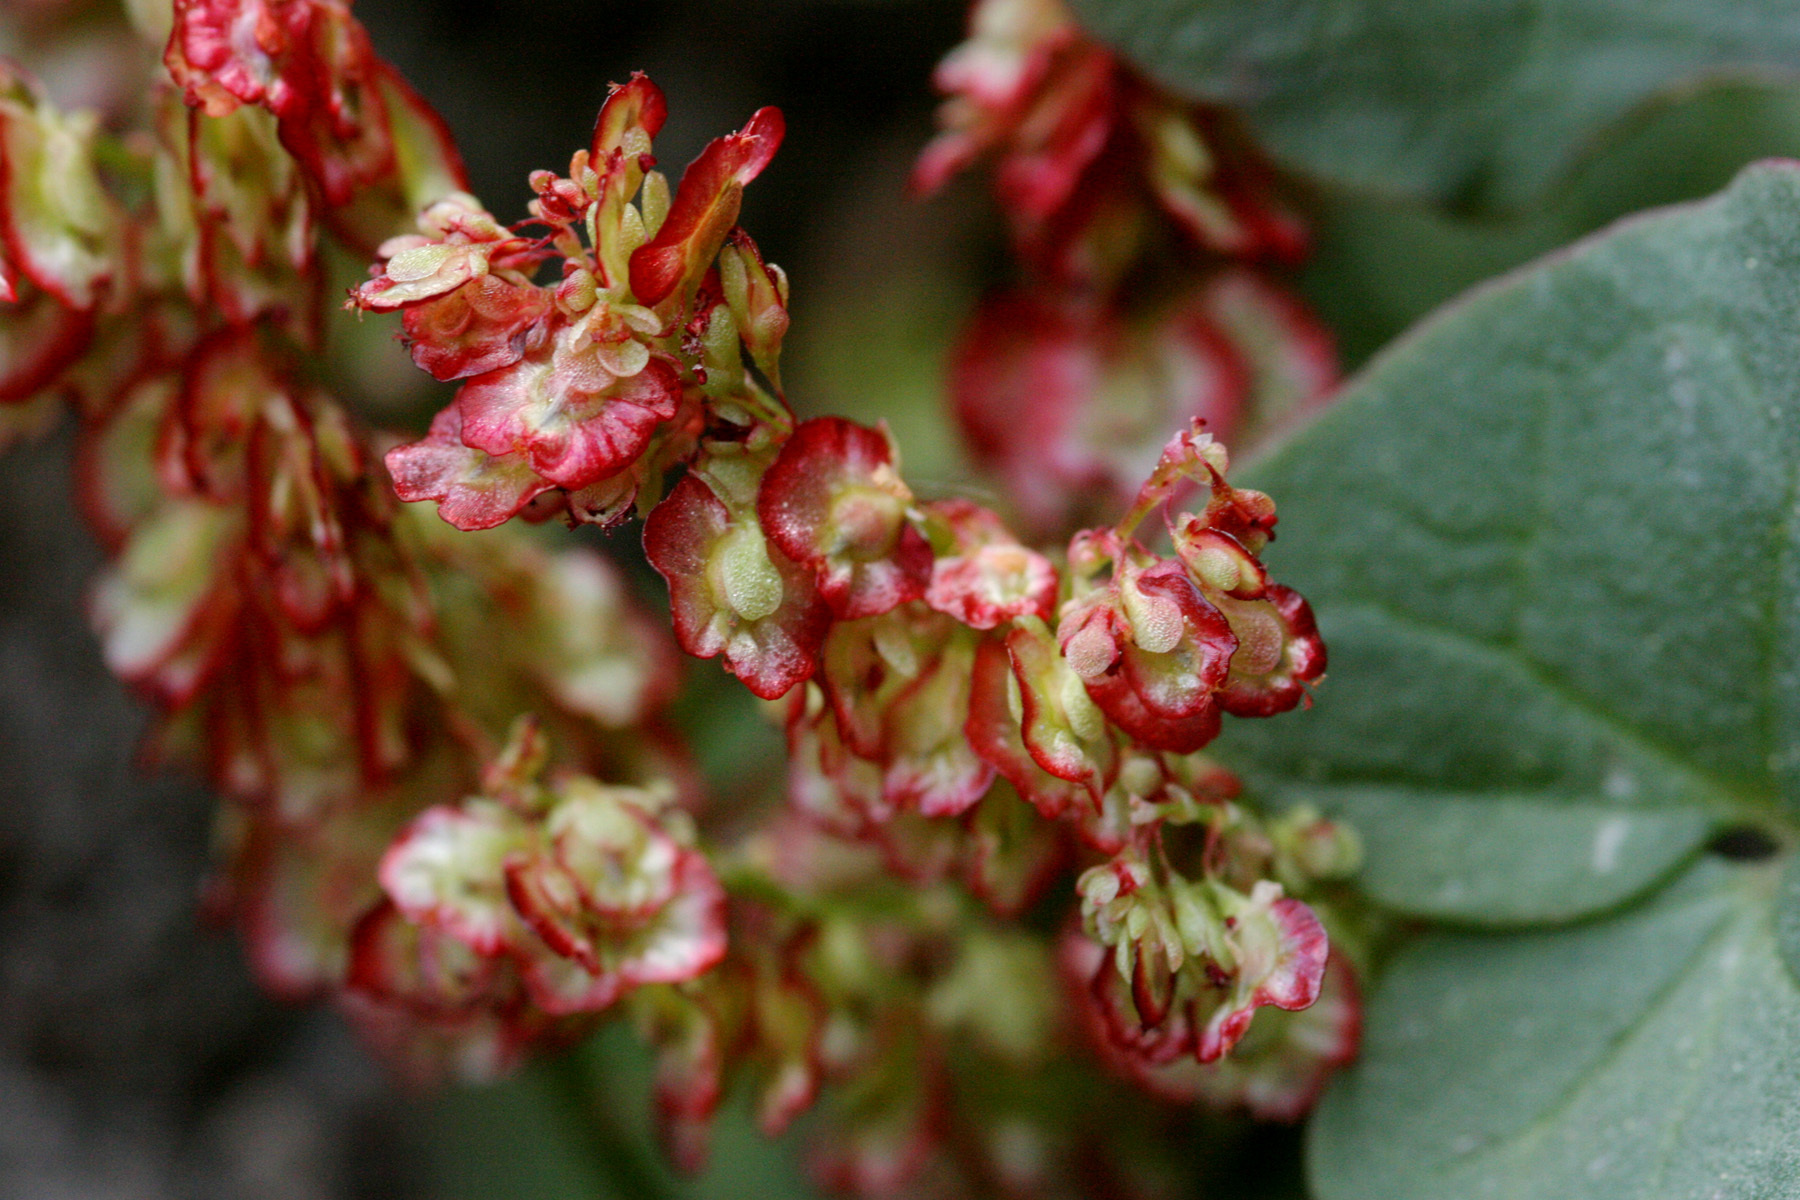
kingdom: Plantae
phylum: Tracheophyta
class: Magnoliopsida
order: Caryophyllales
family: Polygonaceae
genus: Oxyria
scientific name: Oxyria digyna
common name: Alpine mountain-sorrel
